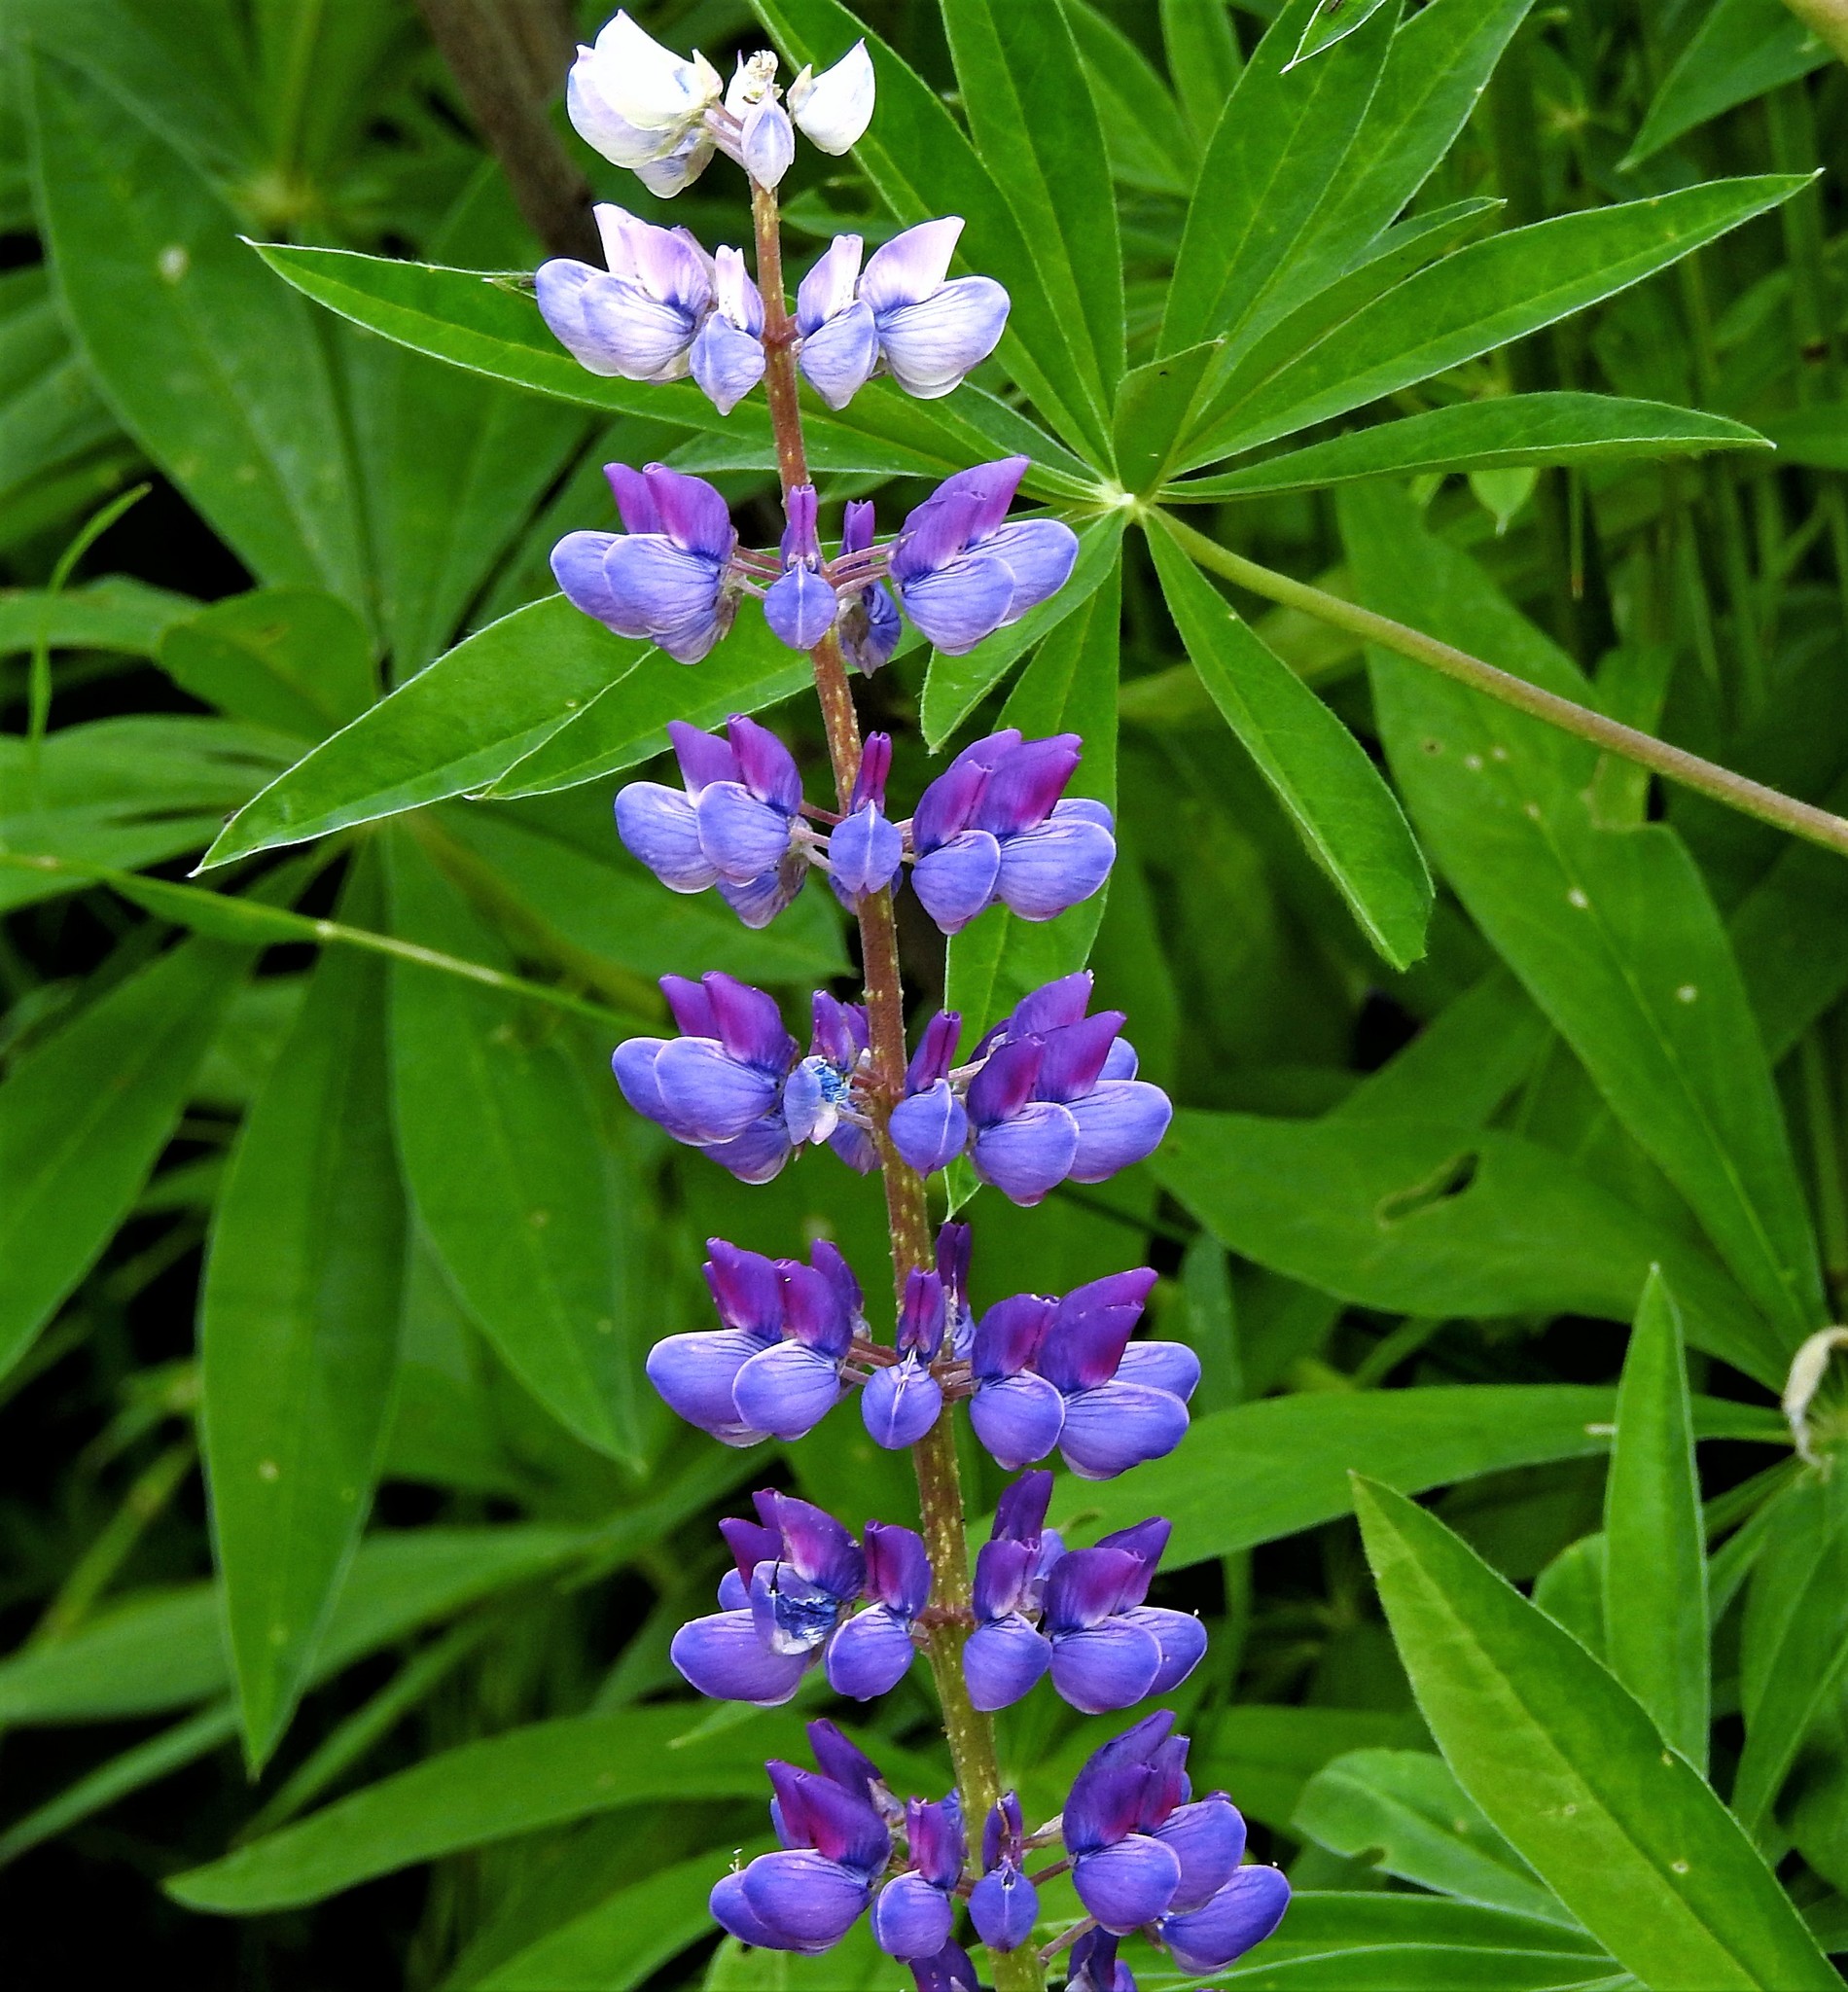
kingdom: Plantae
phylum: Tracheophyta
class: Magnoliopsida
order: Fabales
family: Fabaceae
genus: Lupinus
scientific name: Lupinus polyphyllus
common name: Garden lupin
